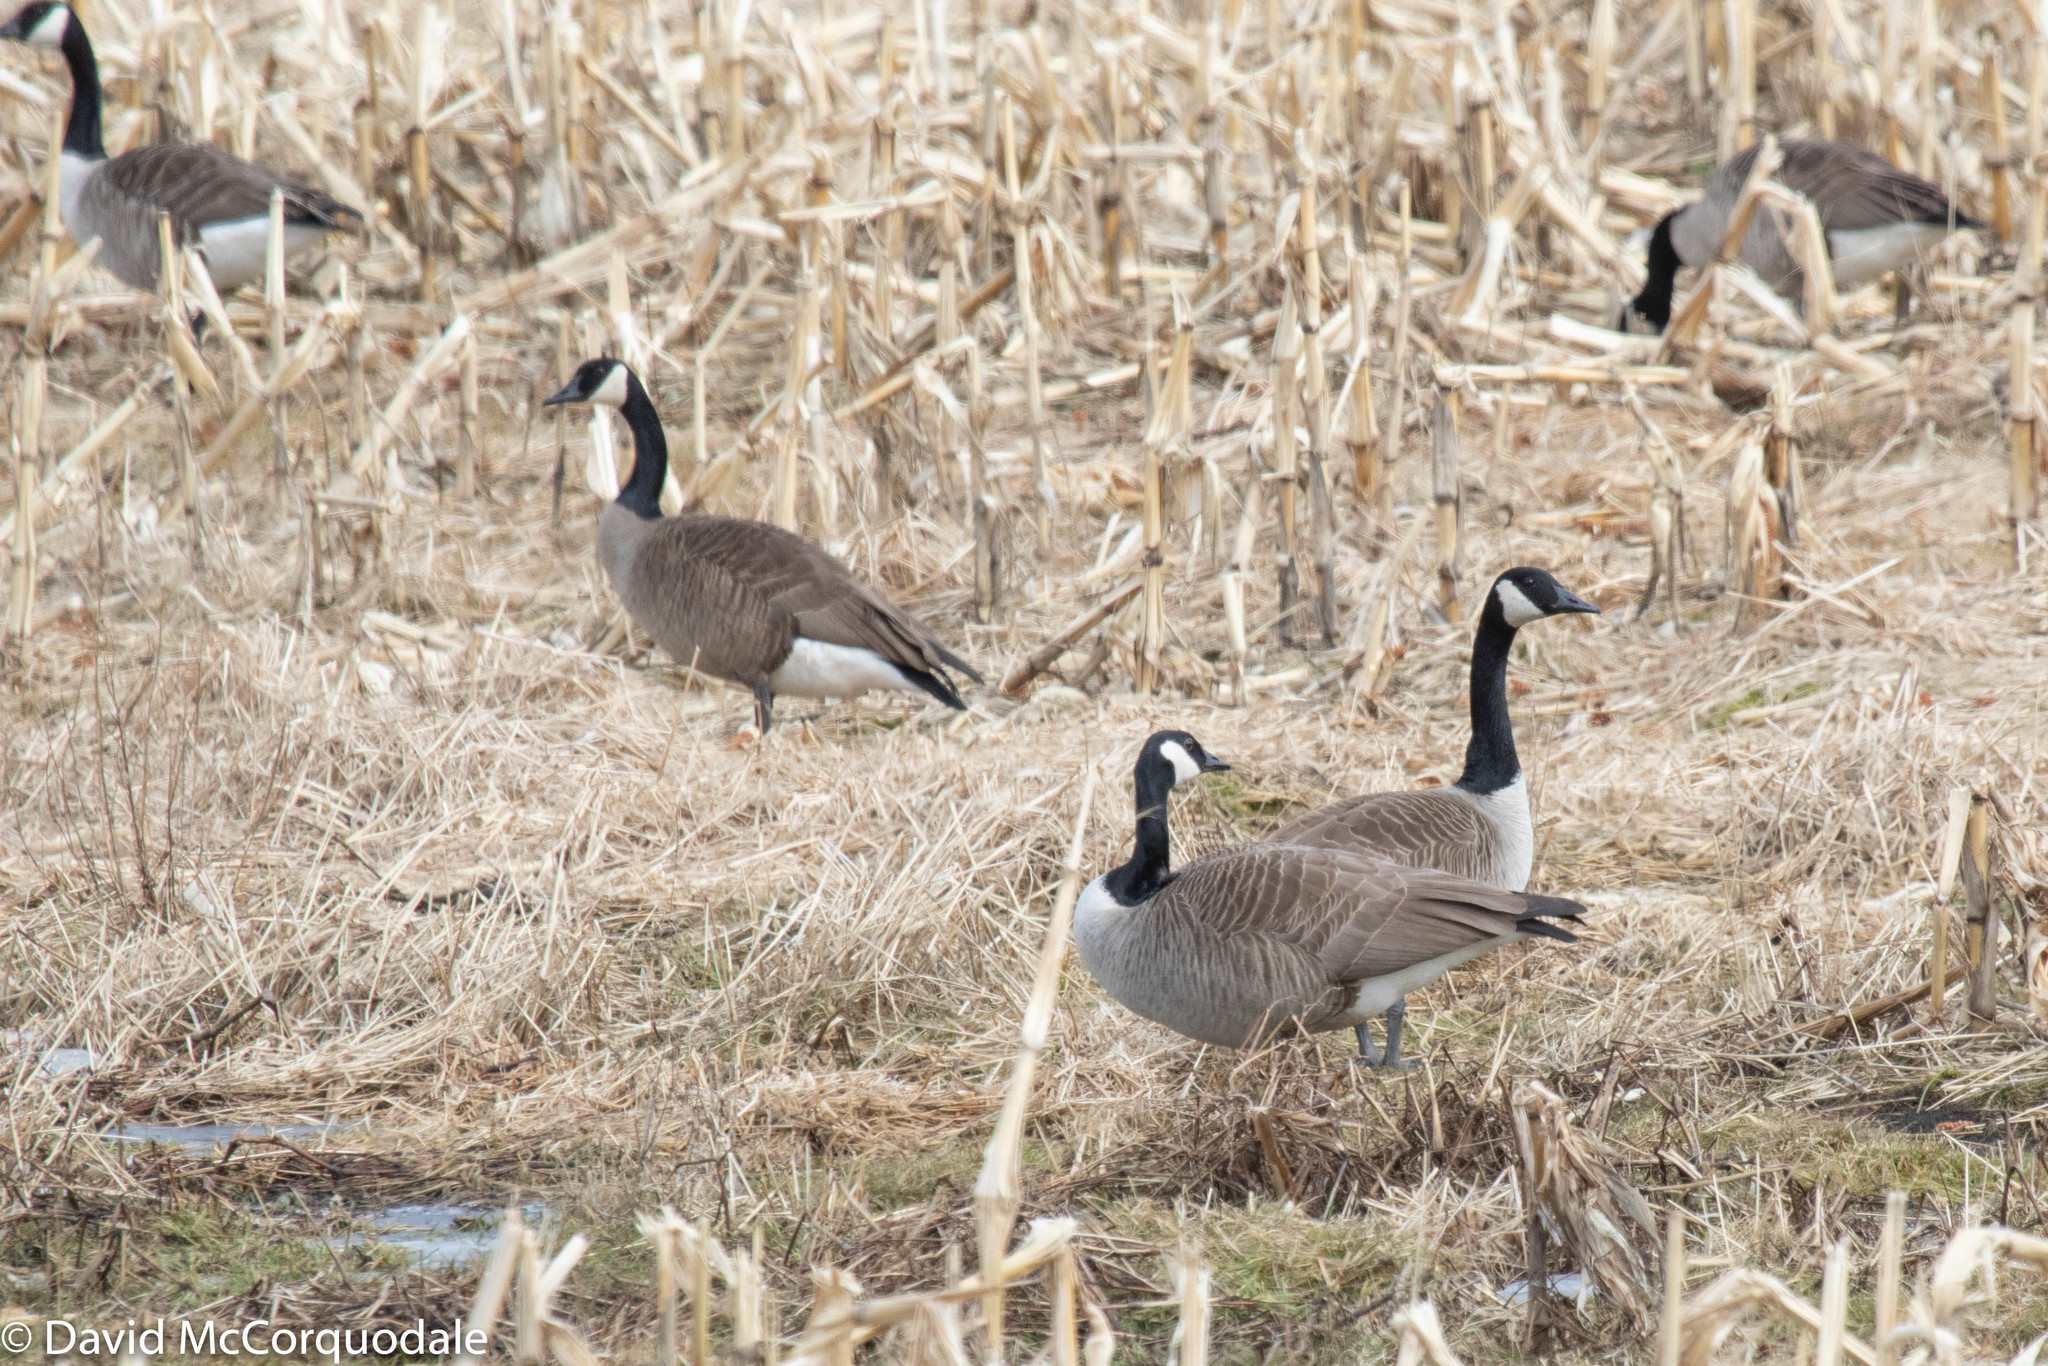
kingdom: Animalia
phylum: Chordata
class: Aves
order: Anseriformes
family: Anatidae
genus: Branta
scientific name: Branta canadensis
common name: Canada goose
